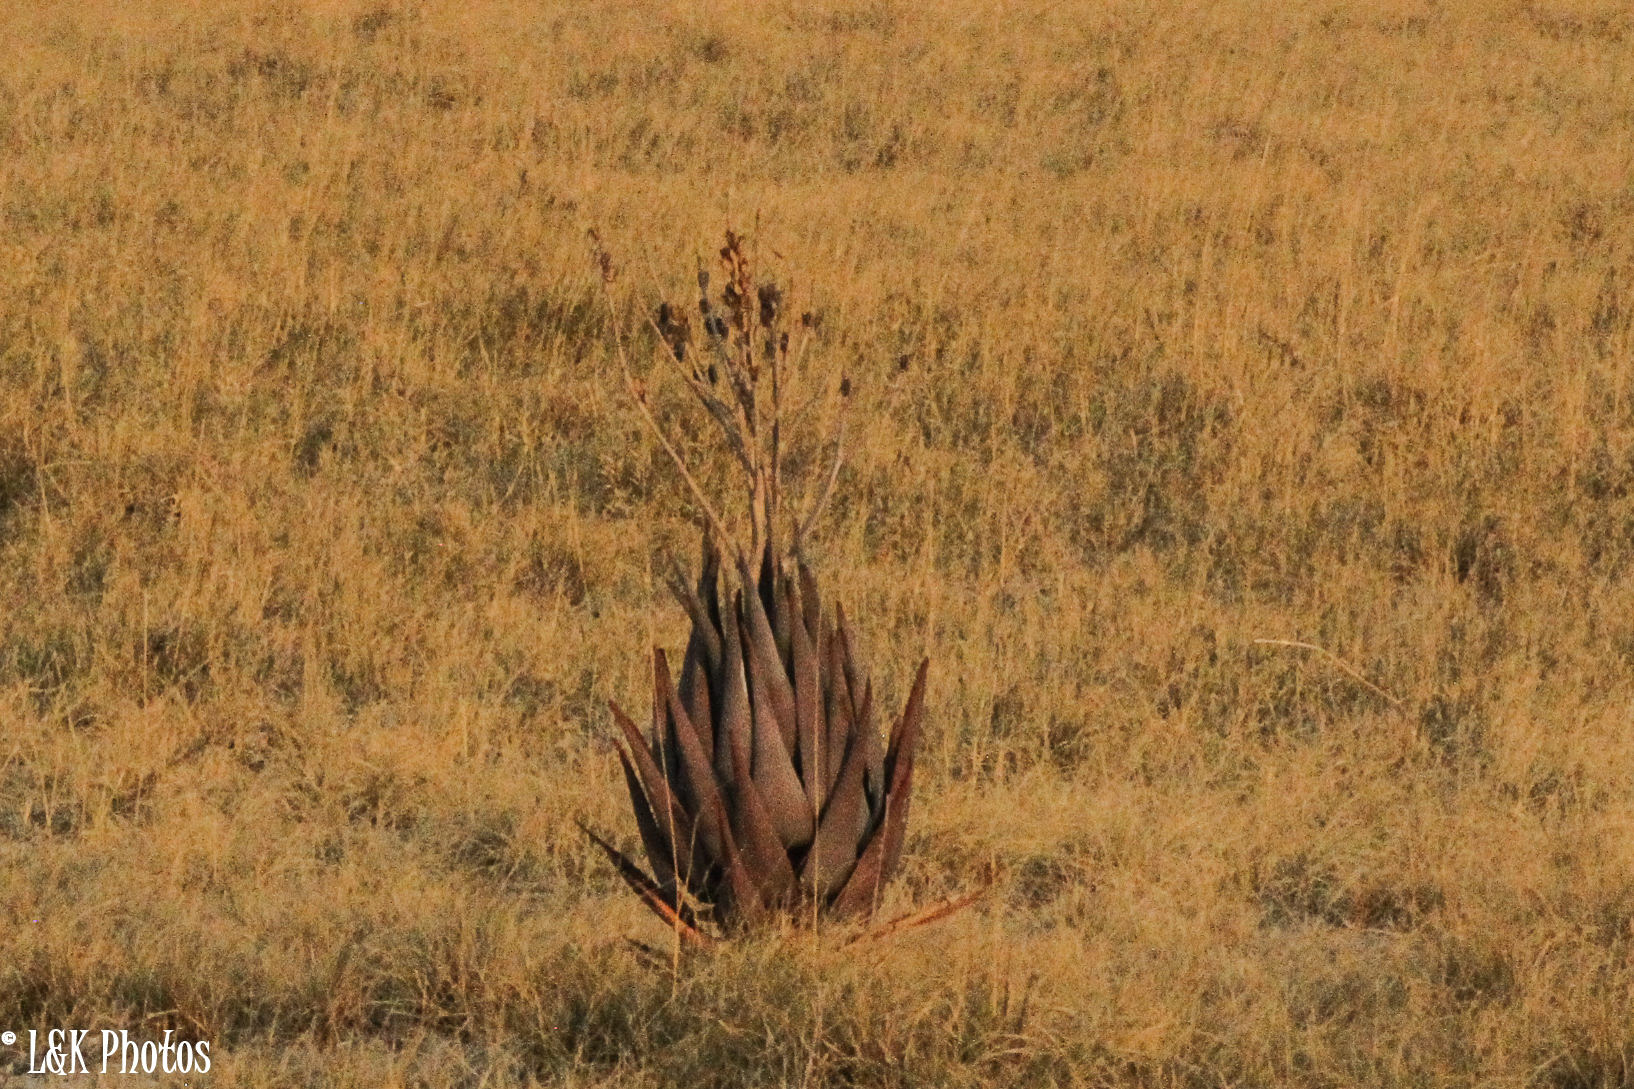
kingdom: Plantae
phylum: Tracheophyta
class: Liliopsida
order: Asparagales
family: Asphodelaceae
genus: Aloe
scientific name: Aloe littoralis
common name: Luanda tree aloe
